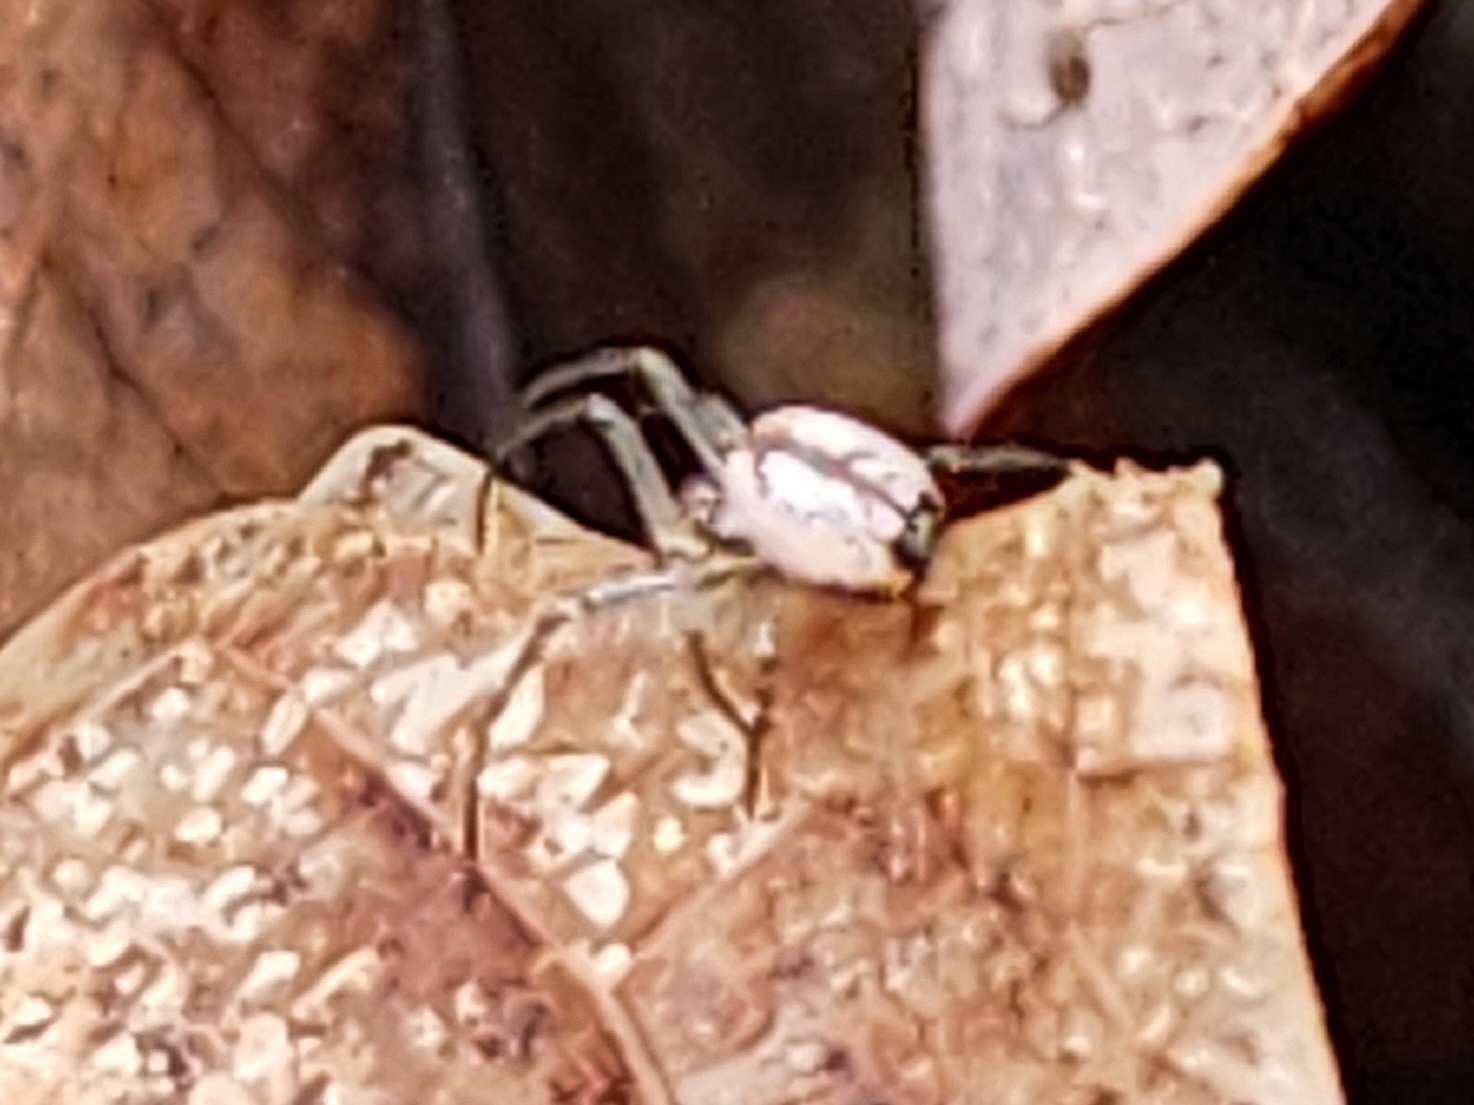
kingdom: Animalia
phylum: Arthropoda
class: Arachnida
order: Araneae
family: Tetragnathidae
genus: Leucauge
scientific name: Leucauge venusta
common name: Longjawed orb weavers
